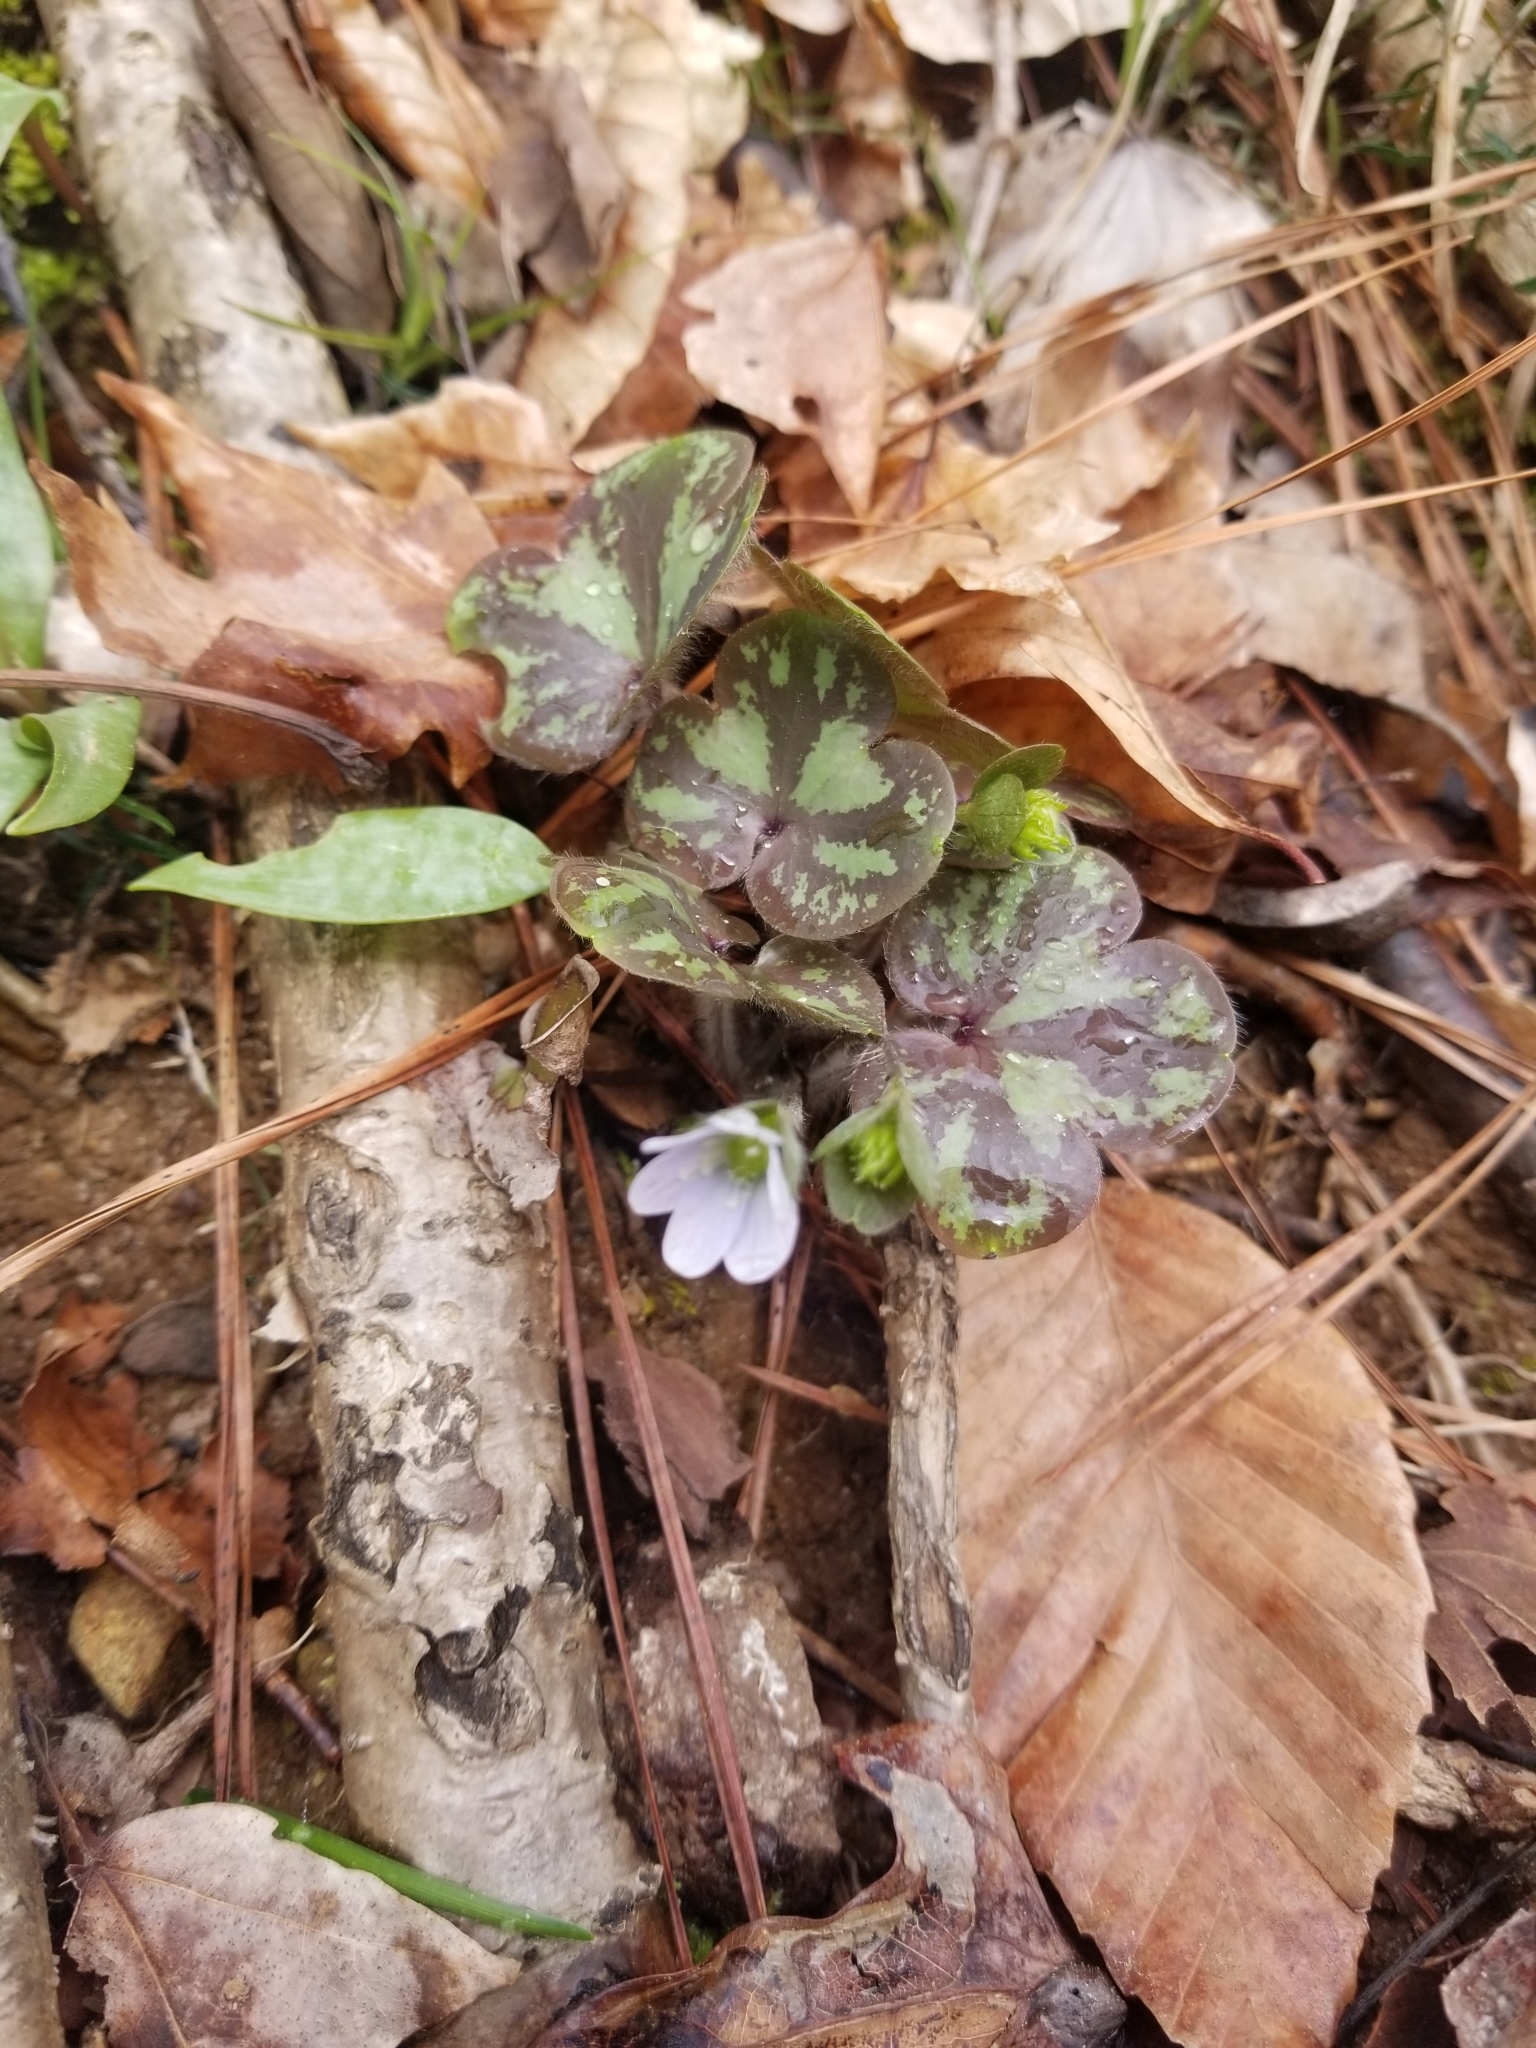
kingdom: Plantae
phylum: Tracheophyta
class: Magnoliopsida
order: Ranunculales
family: Ranunculaceae
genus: Hepatica
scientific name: Hepatica americana
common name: American hepatica
